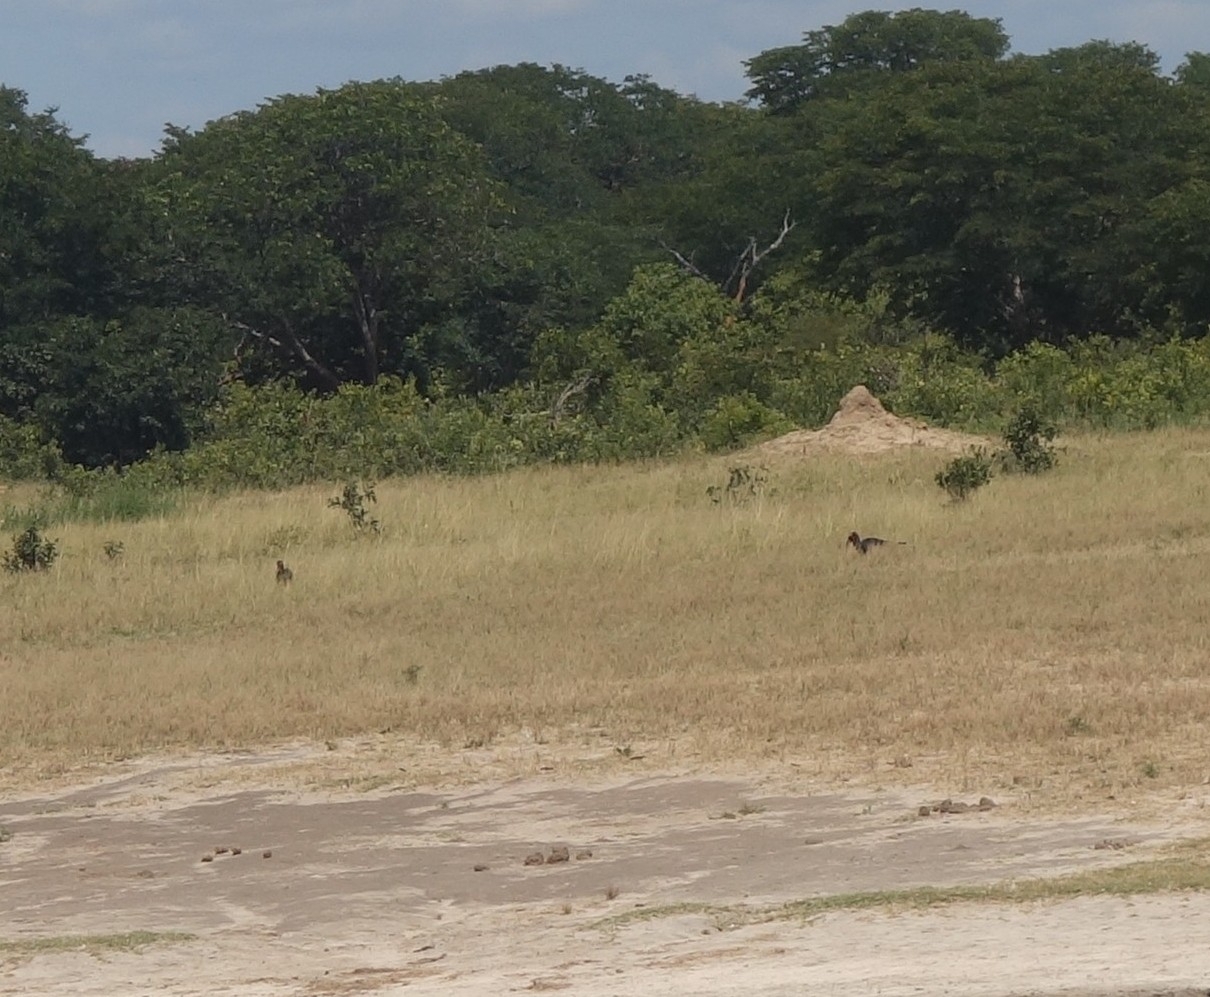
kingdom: Animalia
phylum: Chordata
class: Aves
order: Bucerotiformes
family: Bucorvidae
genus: Bucorvus
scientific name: Bucorvus leadbeateri
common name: Southern ground-hornbill
